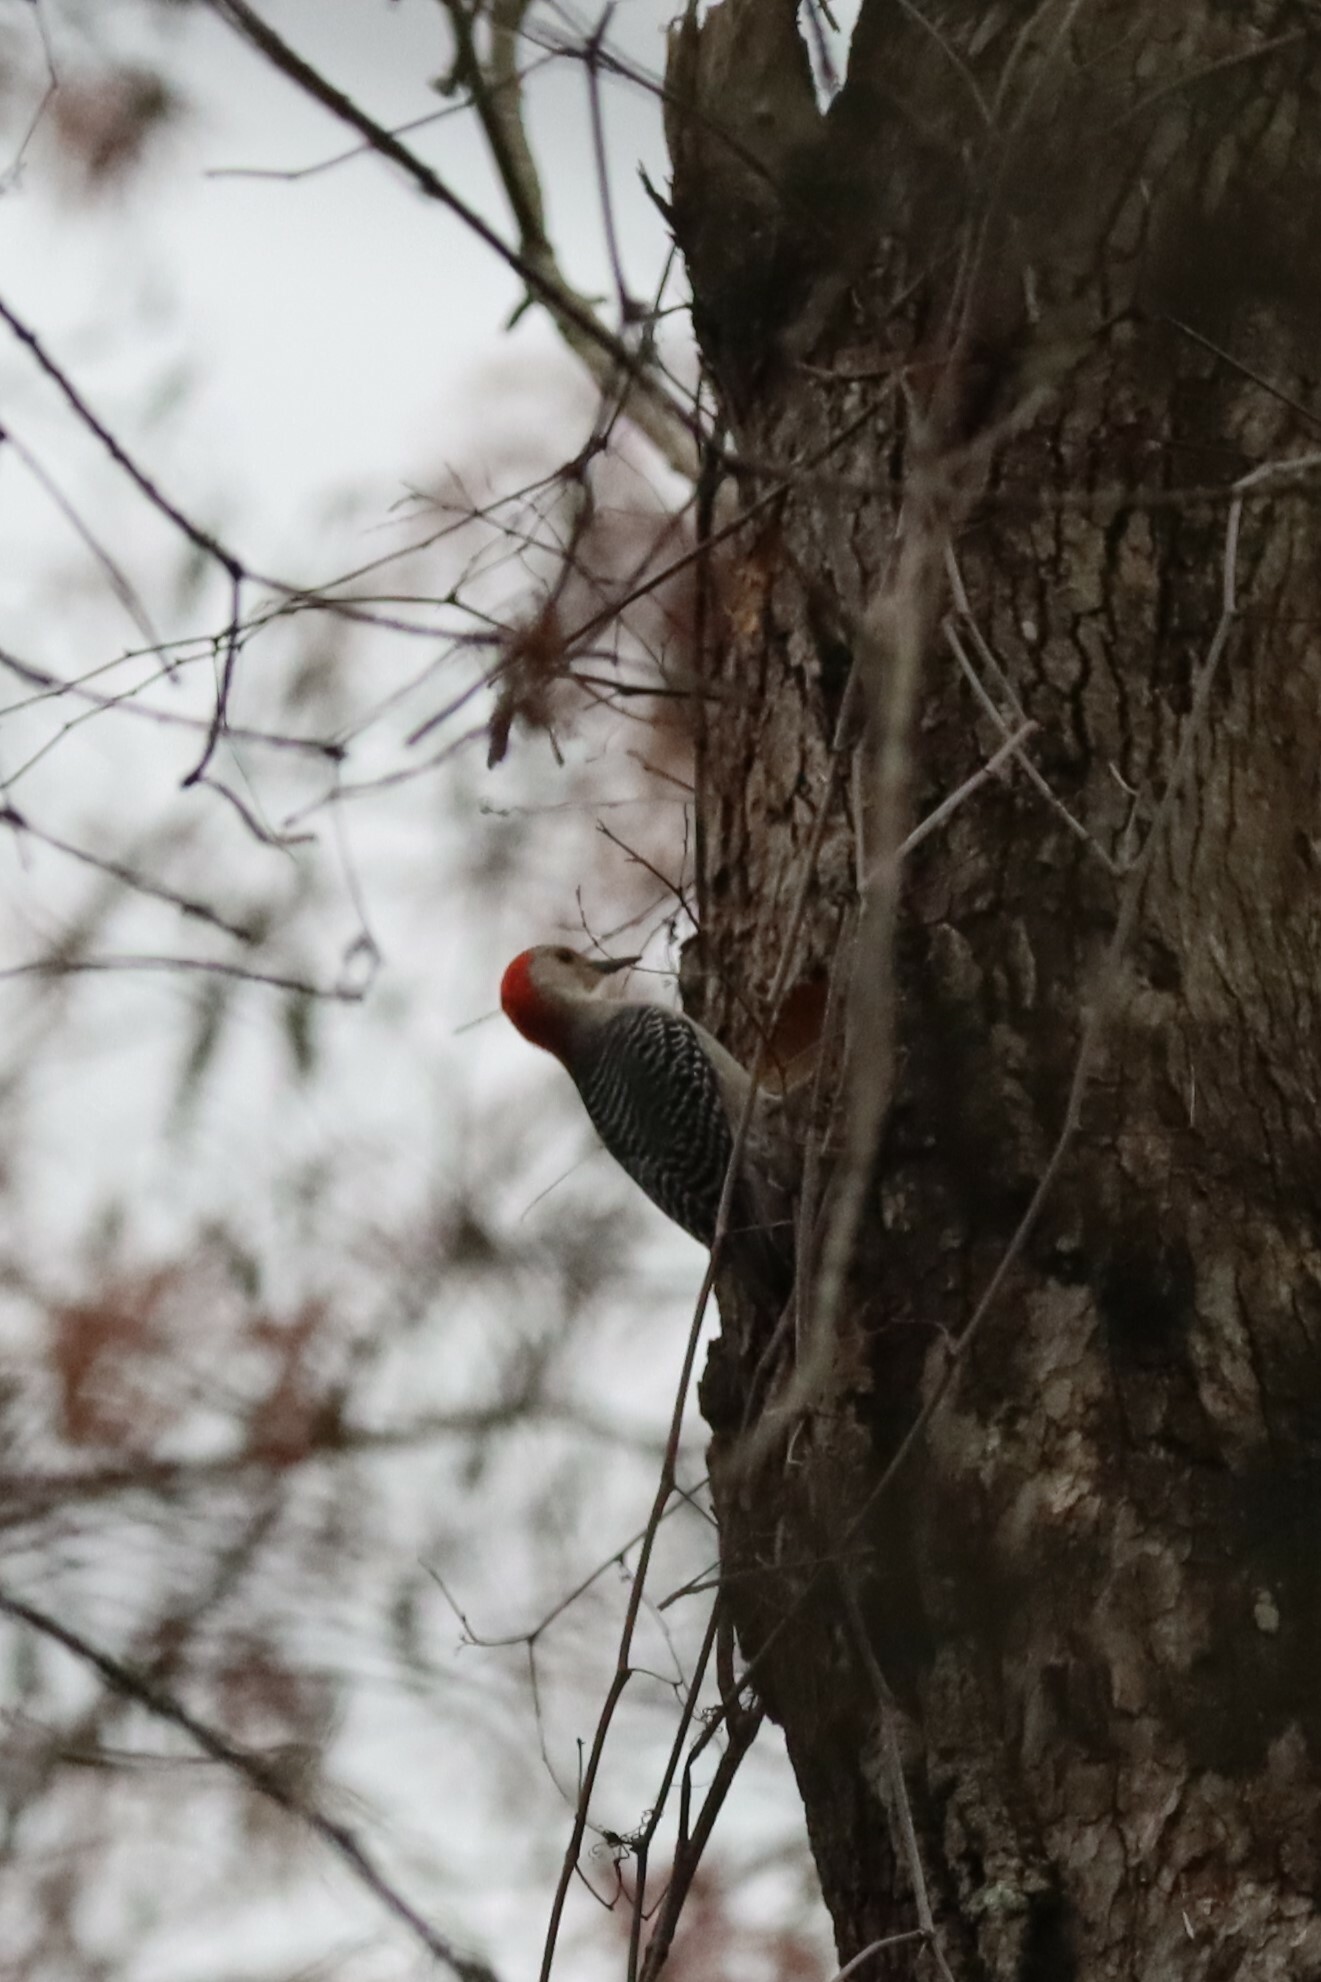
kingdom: Animalia
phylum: Chordata
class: Aves
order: Piciformes
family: Picidae
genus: Melanerpes
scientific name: Melanerpes carolinus
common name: Red-bellied woodpecker
